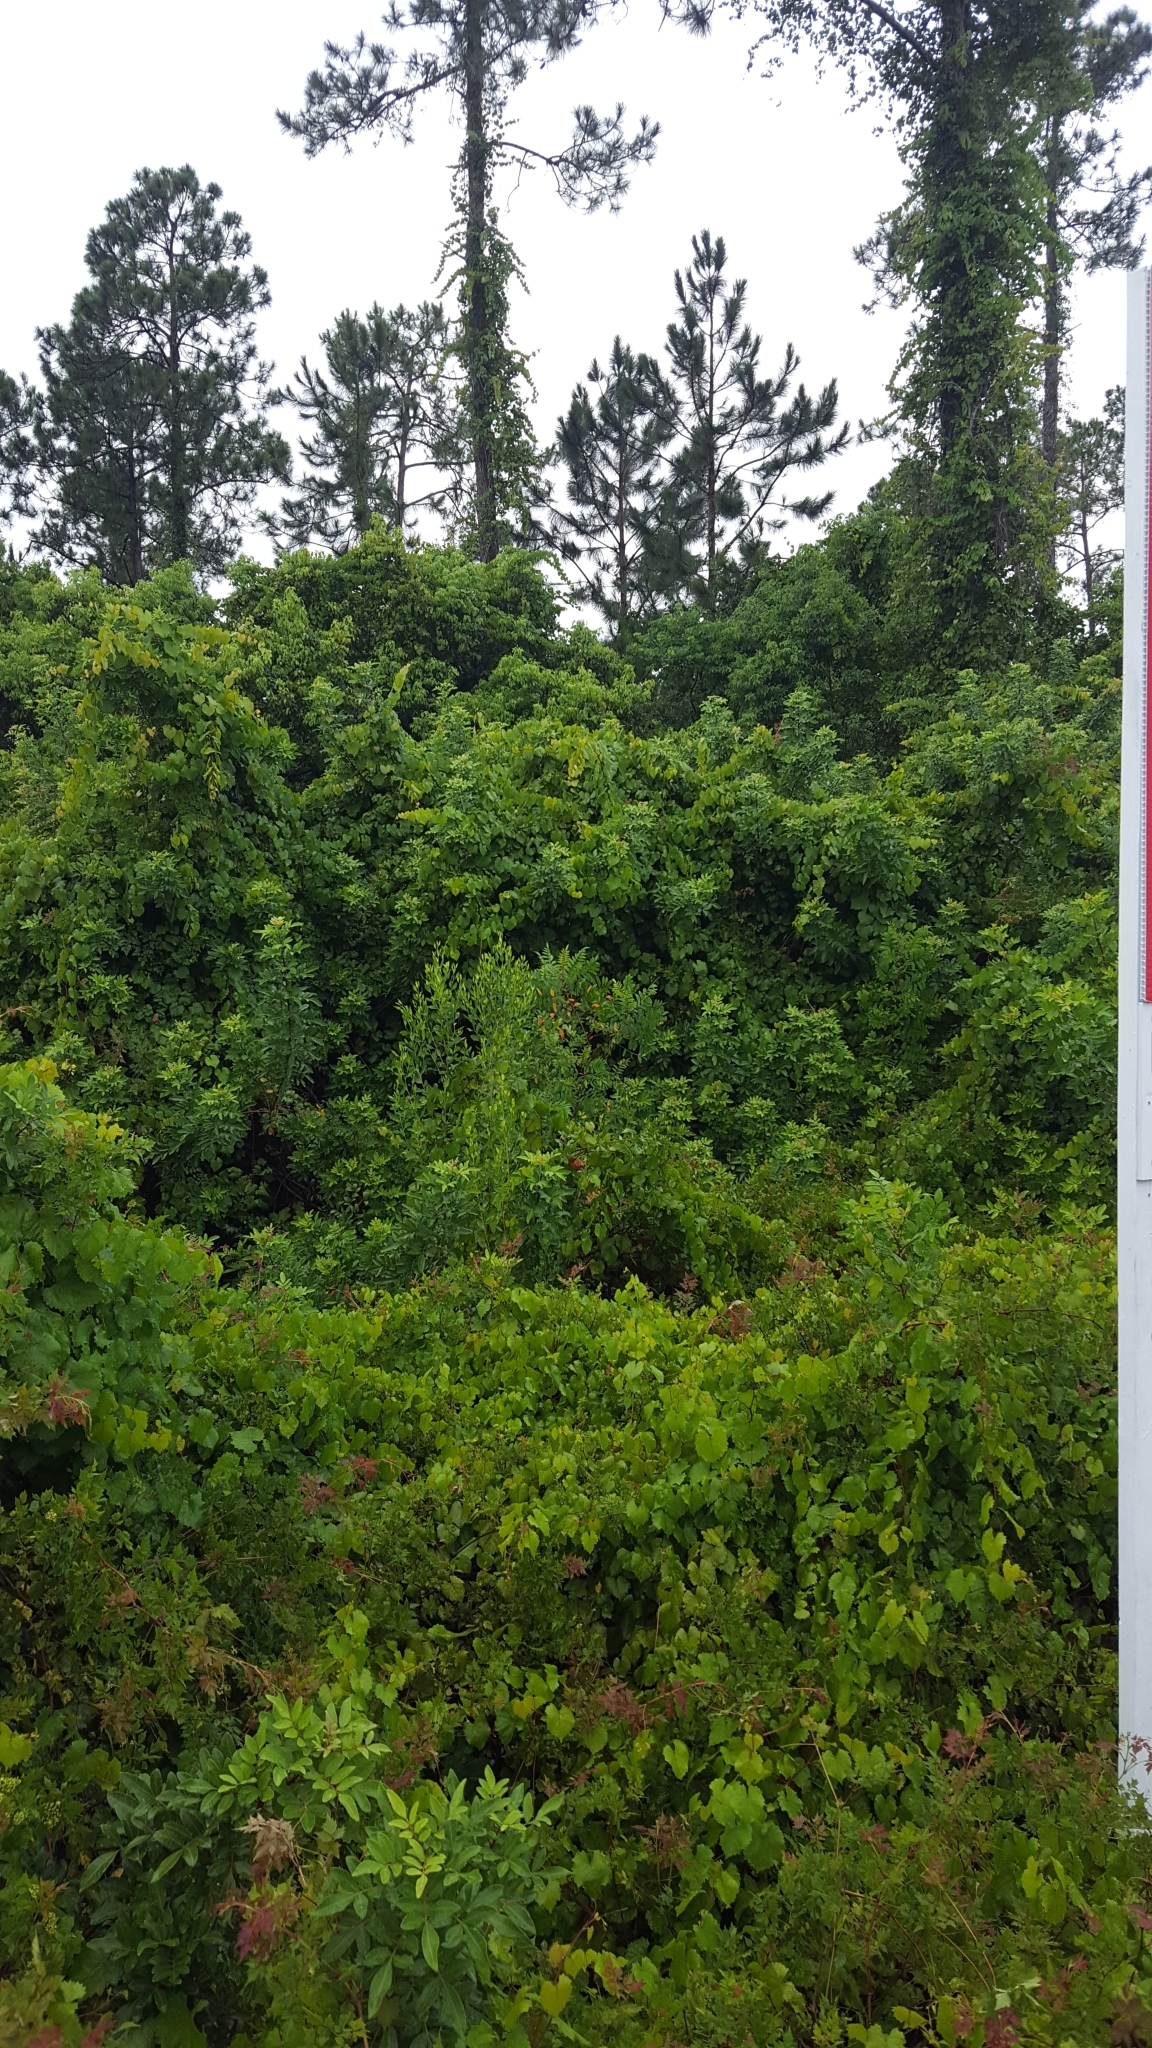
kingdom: Plantae
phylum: Tracheophyta
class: Magnoliopsida
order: Asterales
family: Asteraceae
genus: Baccharis
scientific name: Baccharis halimifolia
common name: Eastern baccharis
